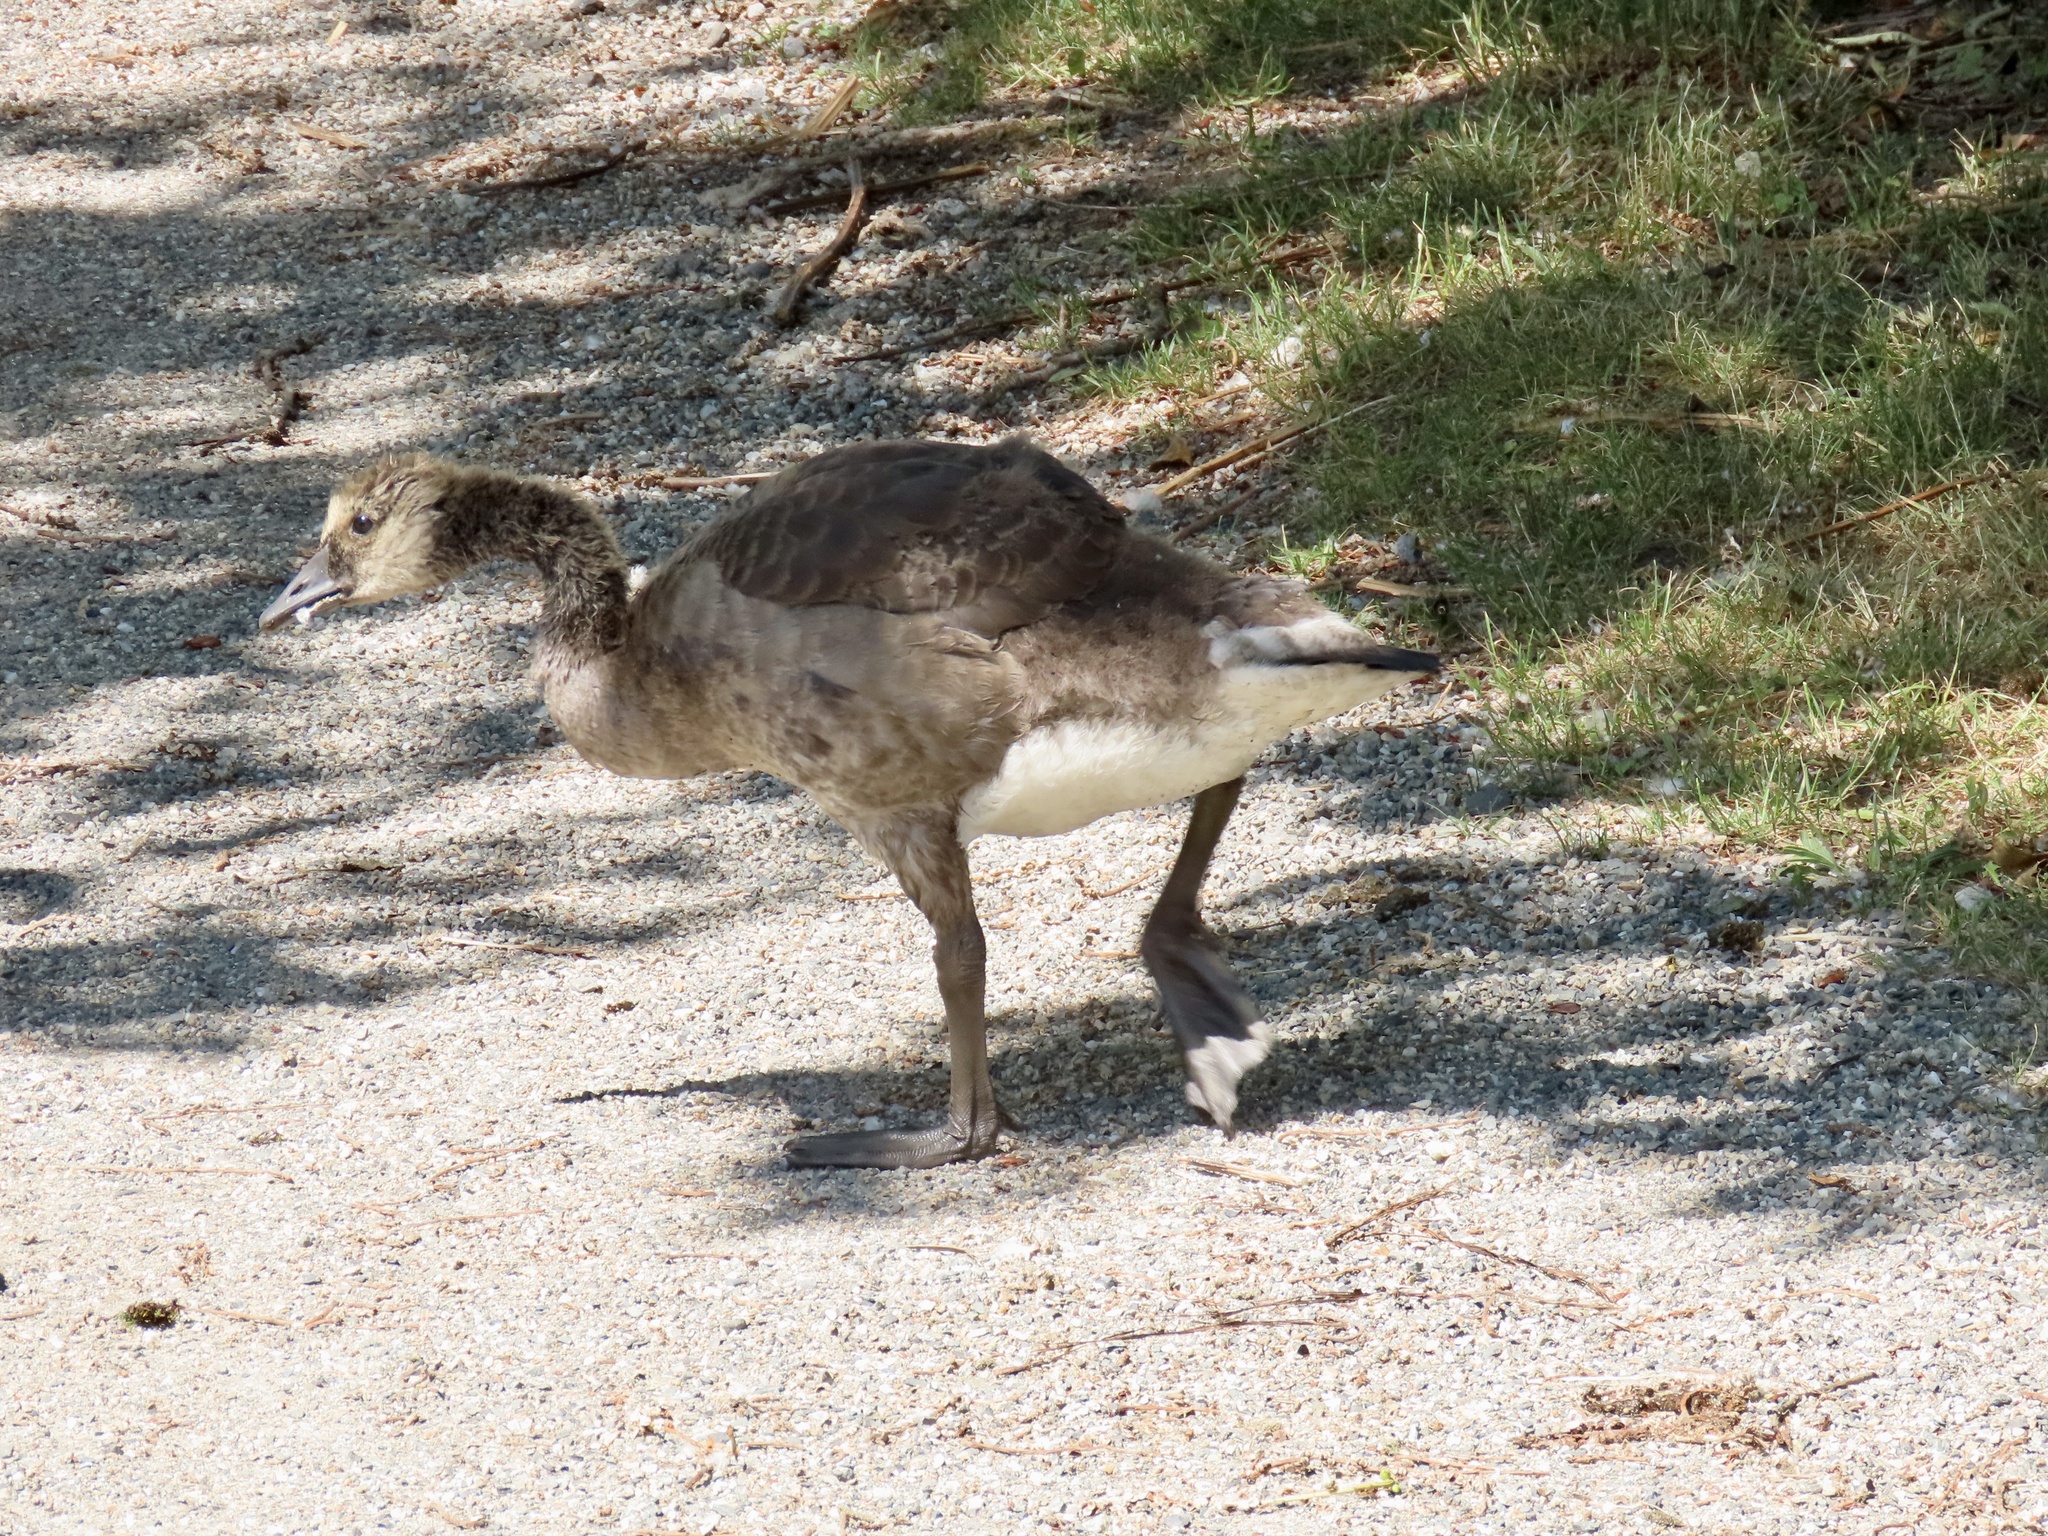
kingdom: Animalia
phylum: Chordata
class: Aves
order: Anseriformes
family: Anatidae
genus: Branta
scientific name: Branta canadensis
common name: Canada goose
